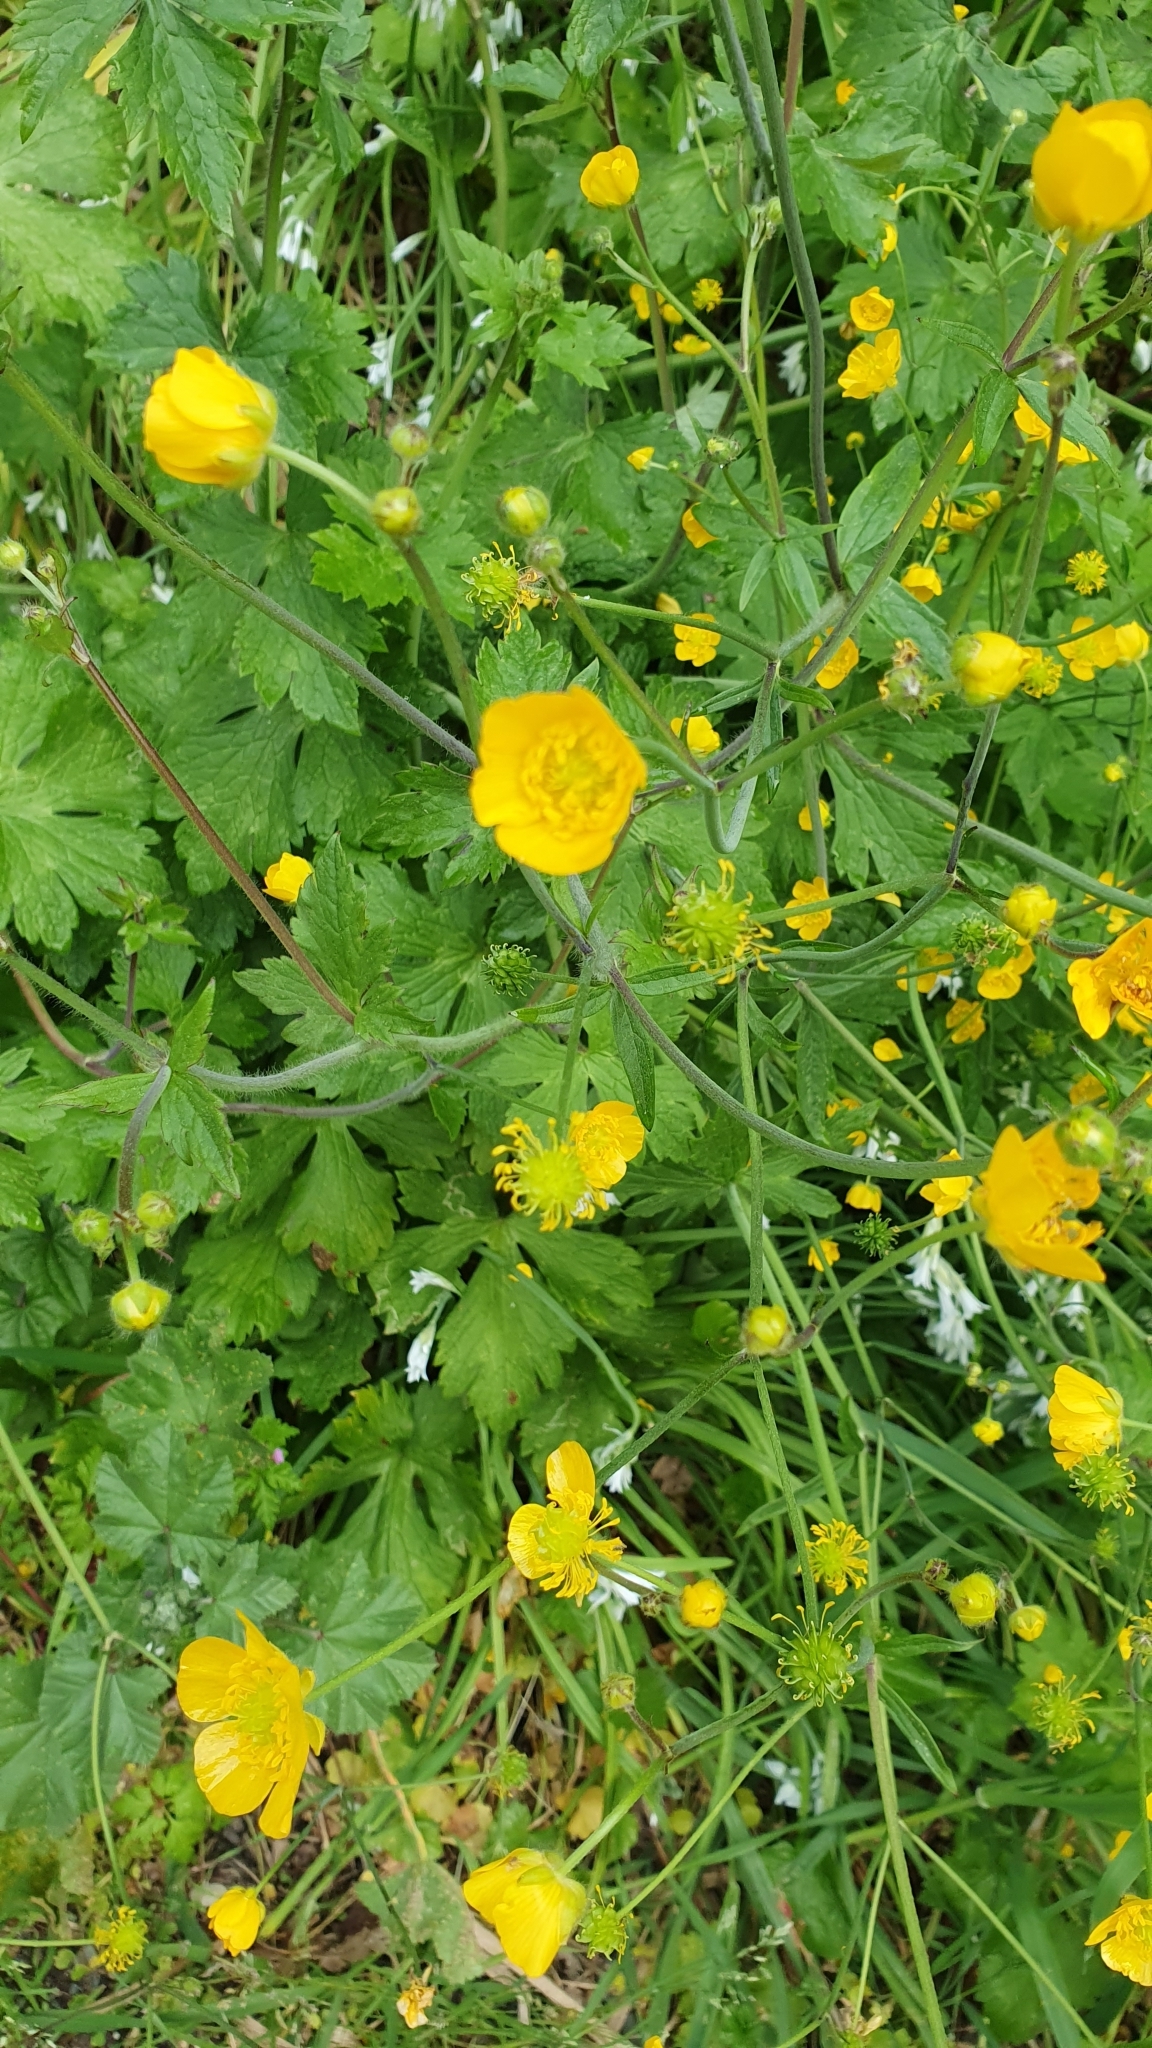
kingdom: Plantae
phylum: Tracheophyta
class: Magnoliopsida
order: Ranunculales
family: Ranunculaceae
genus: Ranunculus
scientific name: Ranunculus lanuginosus
